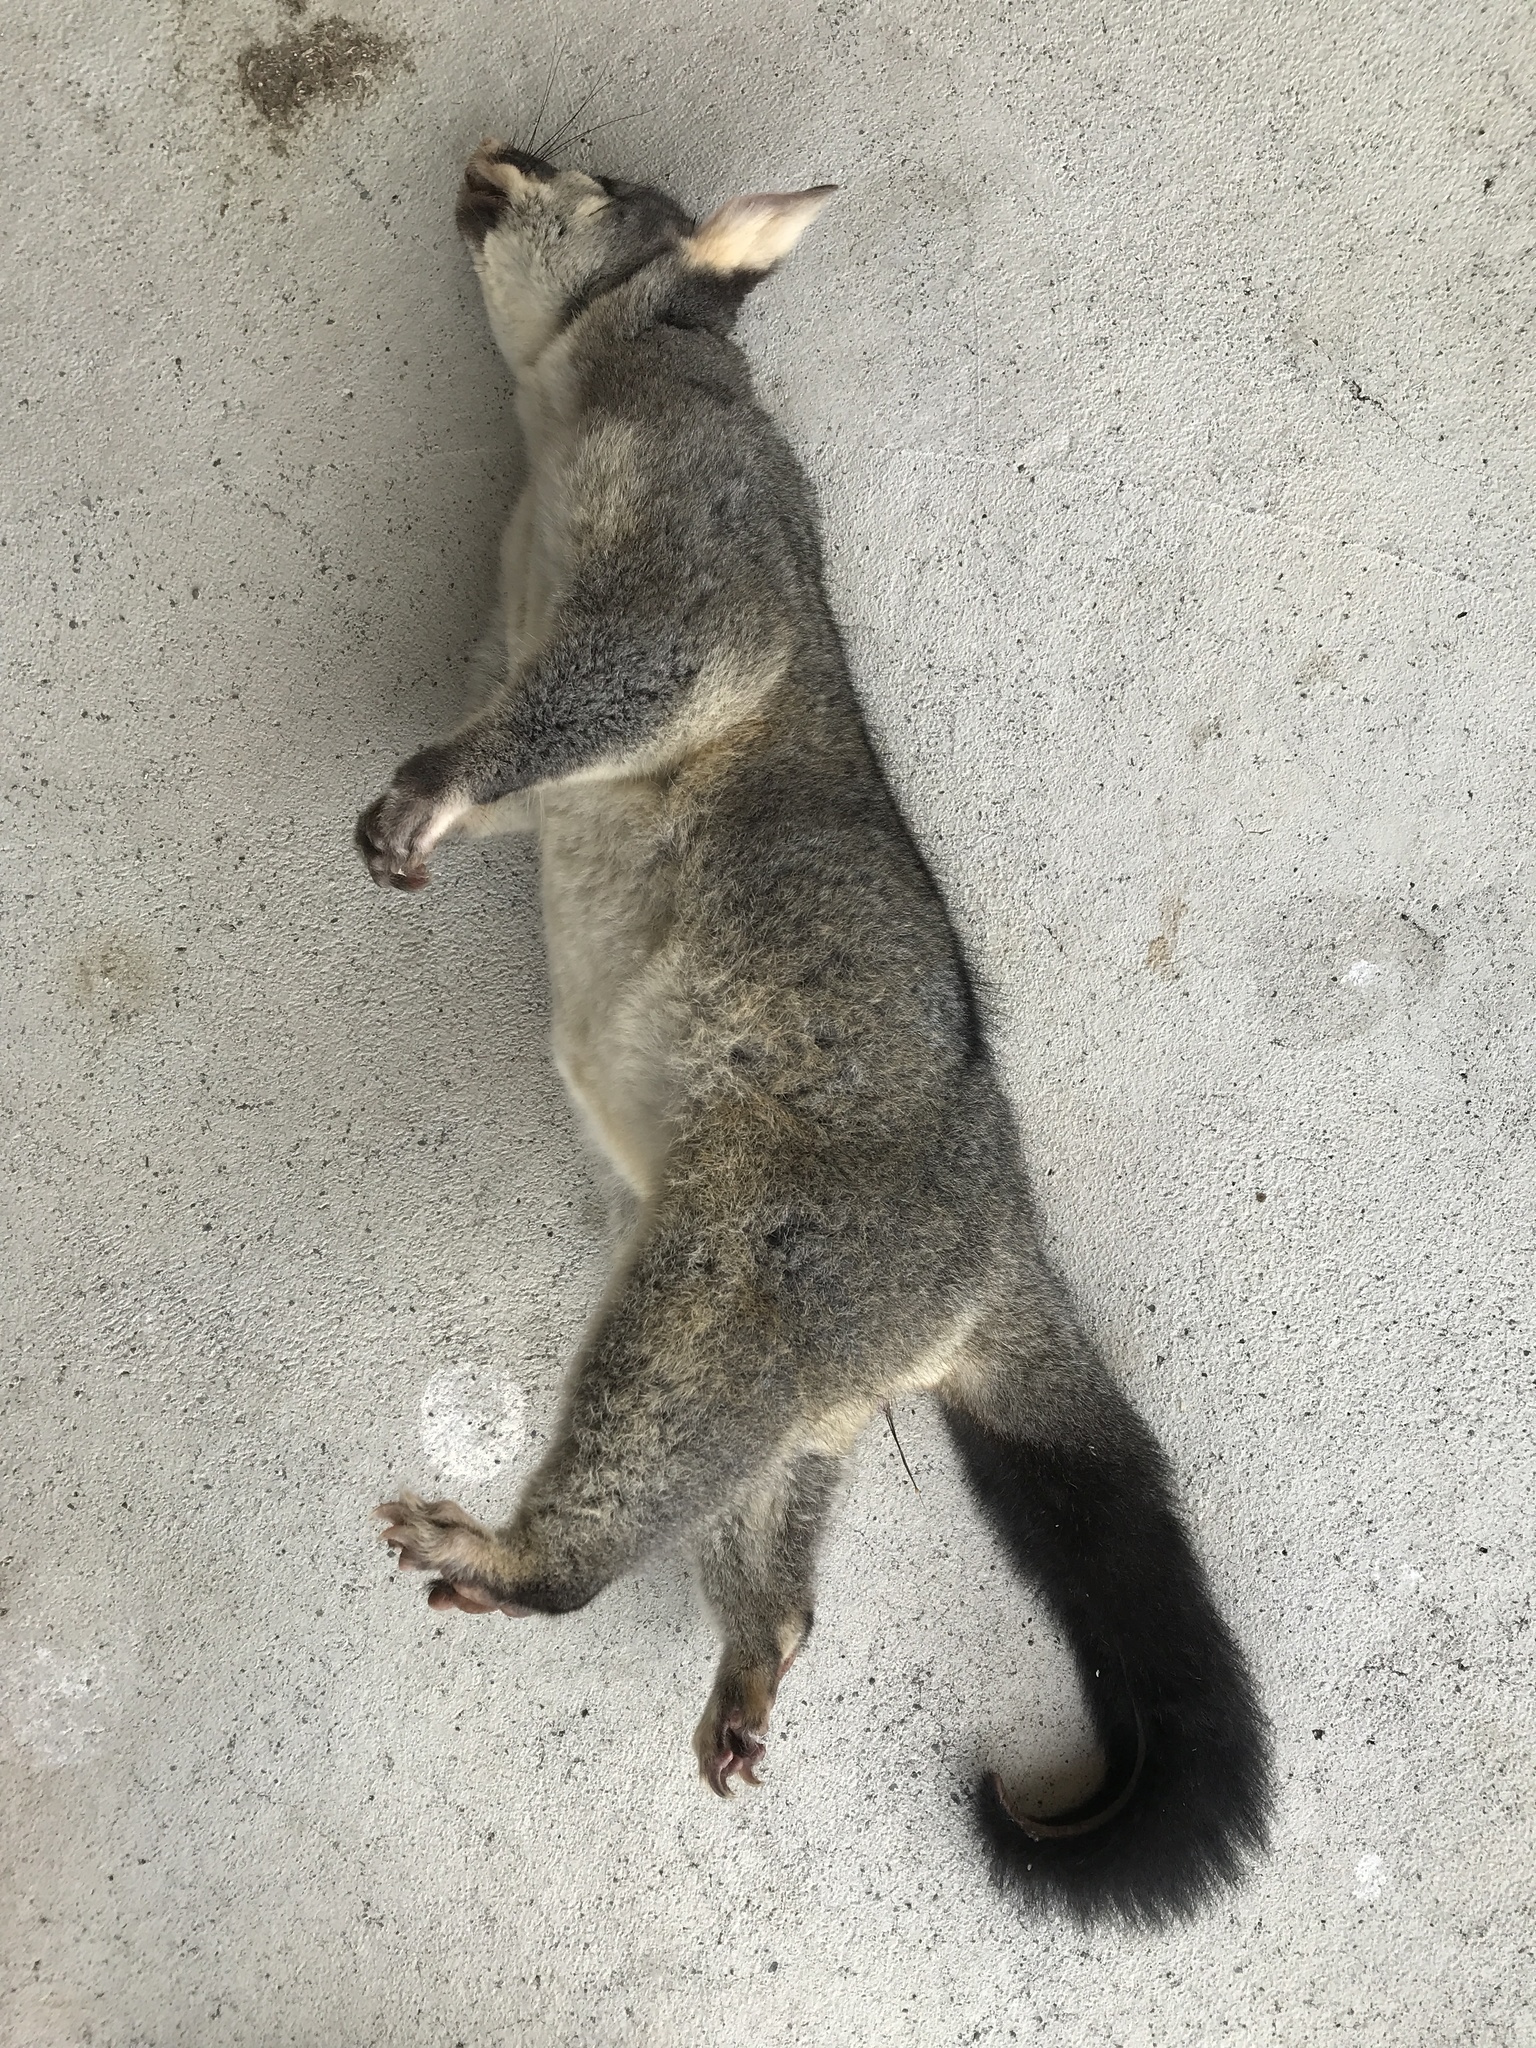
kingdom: Animalia
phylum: Chordata
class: Mammalia
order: Diprotodontia
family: Phalangeridae
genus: Trichosurus
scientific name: Trichosurus vulpecula
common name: Common brushtail
